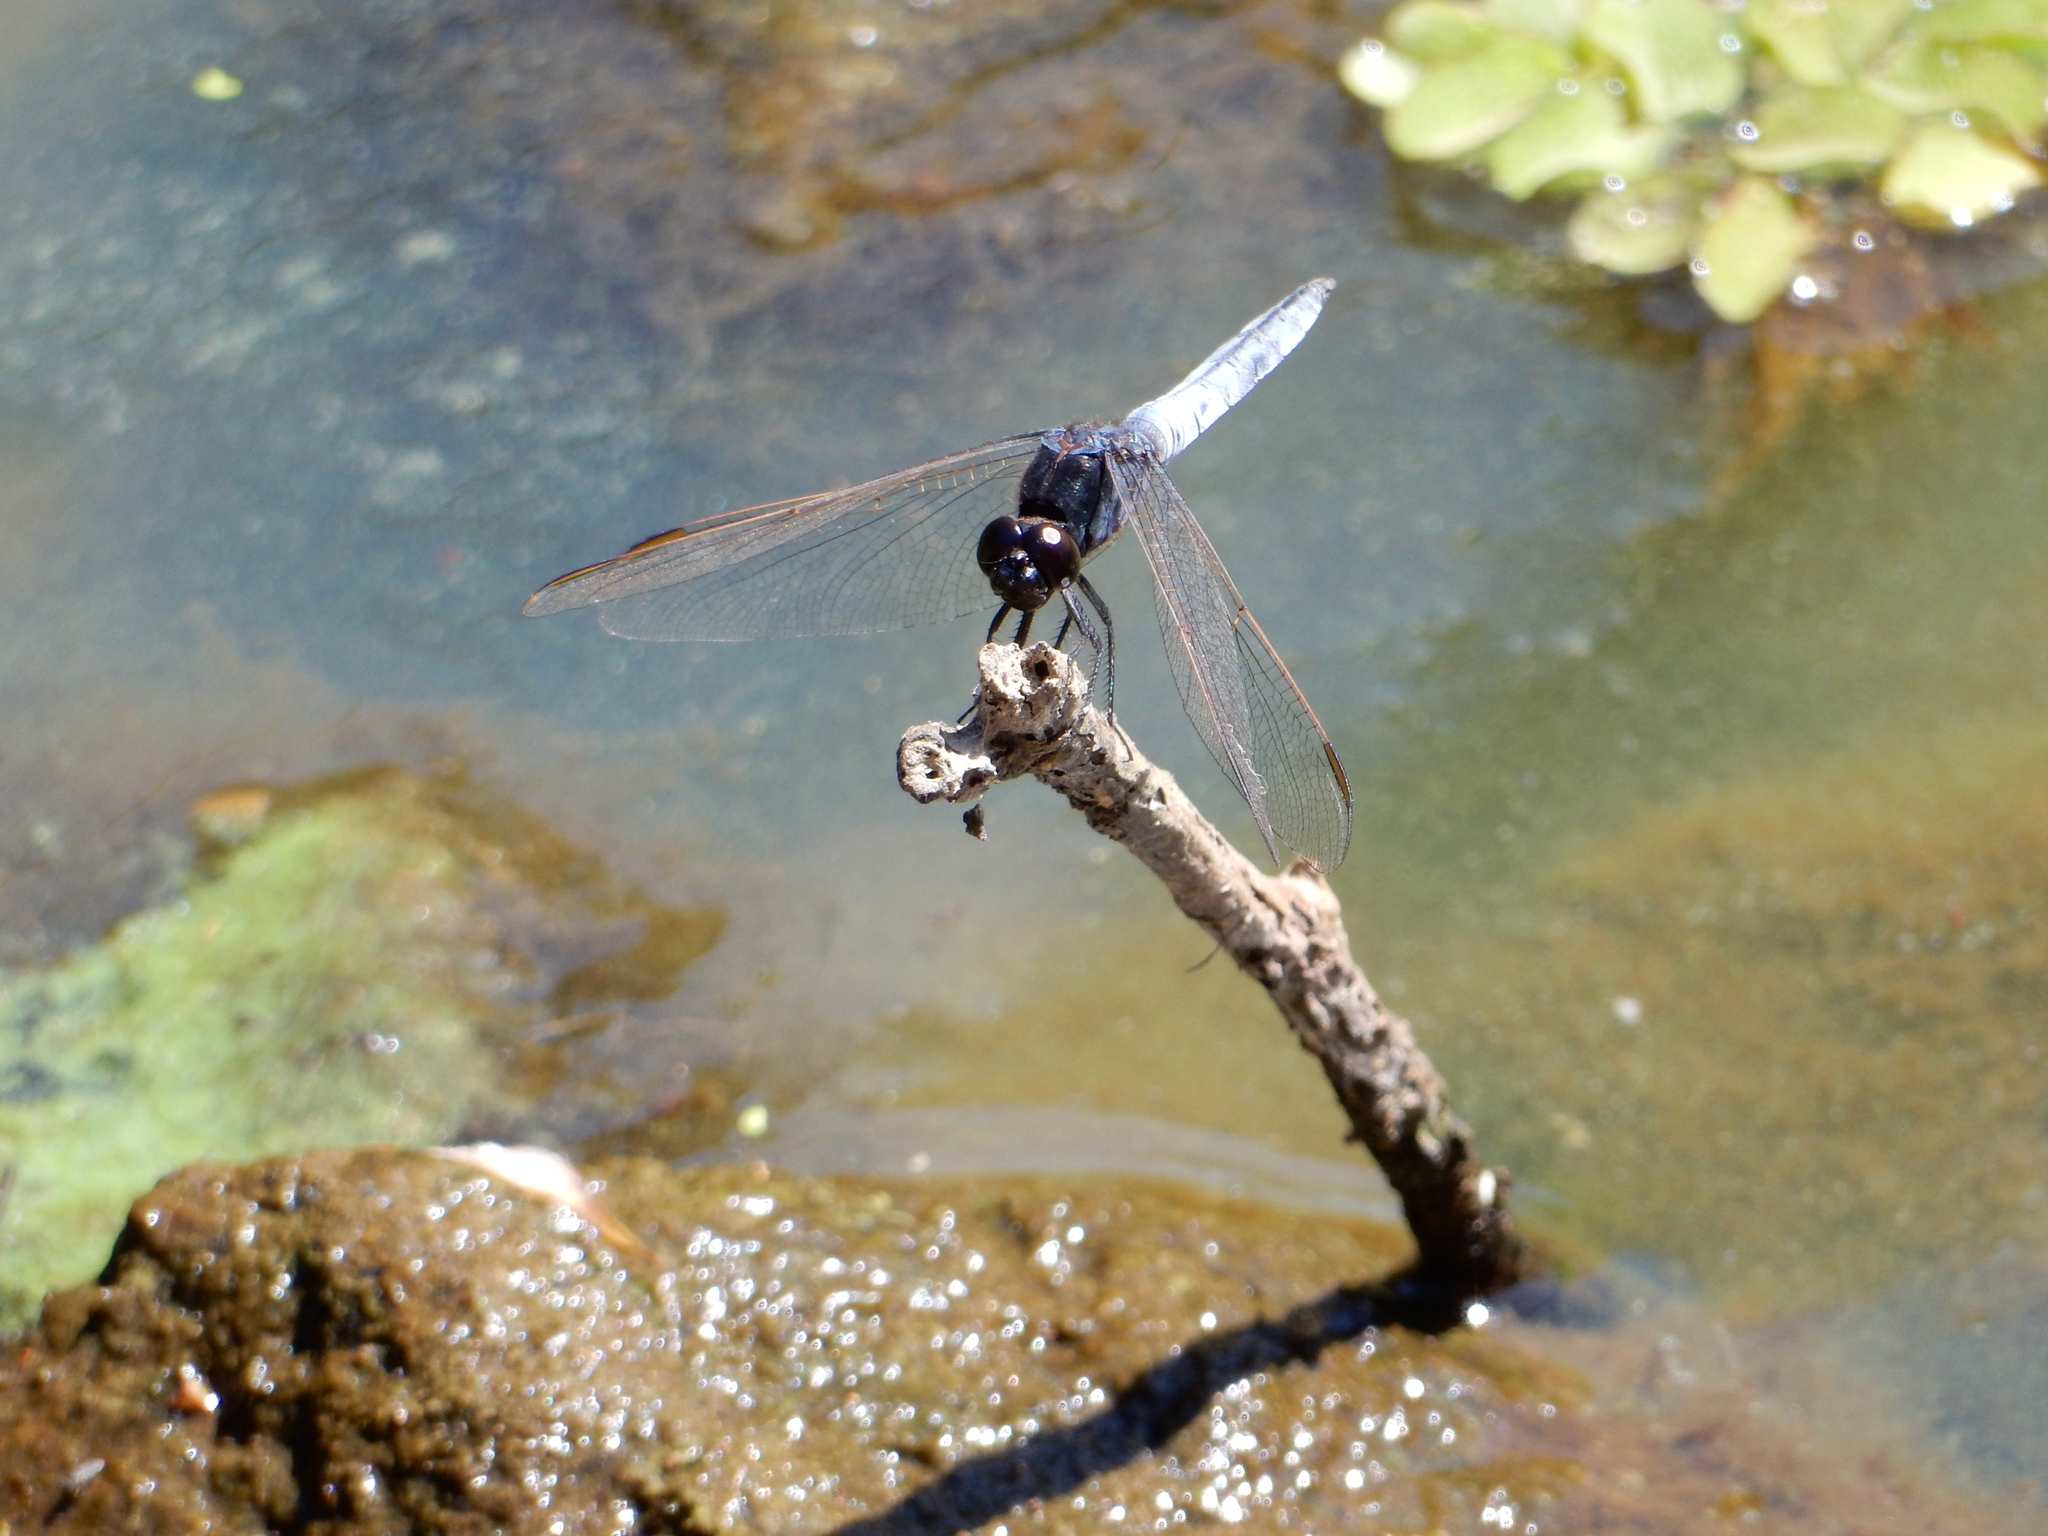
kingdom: Animalia
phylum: Arthropoda
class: Insecta
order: Odonata
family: Libellulidae
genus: Crocothemis
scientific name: Crocothemis nigrifrons
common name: Black-headed skimmer
